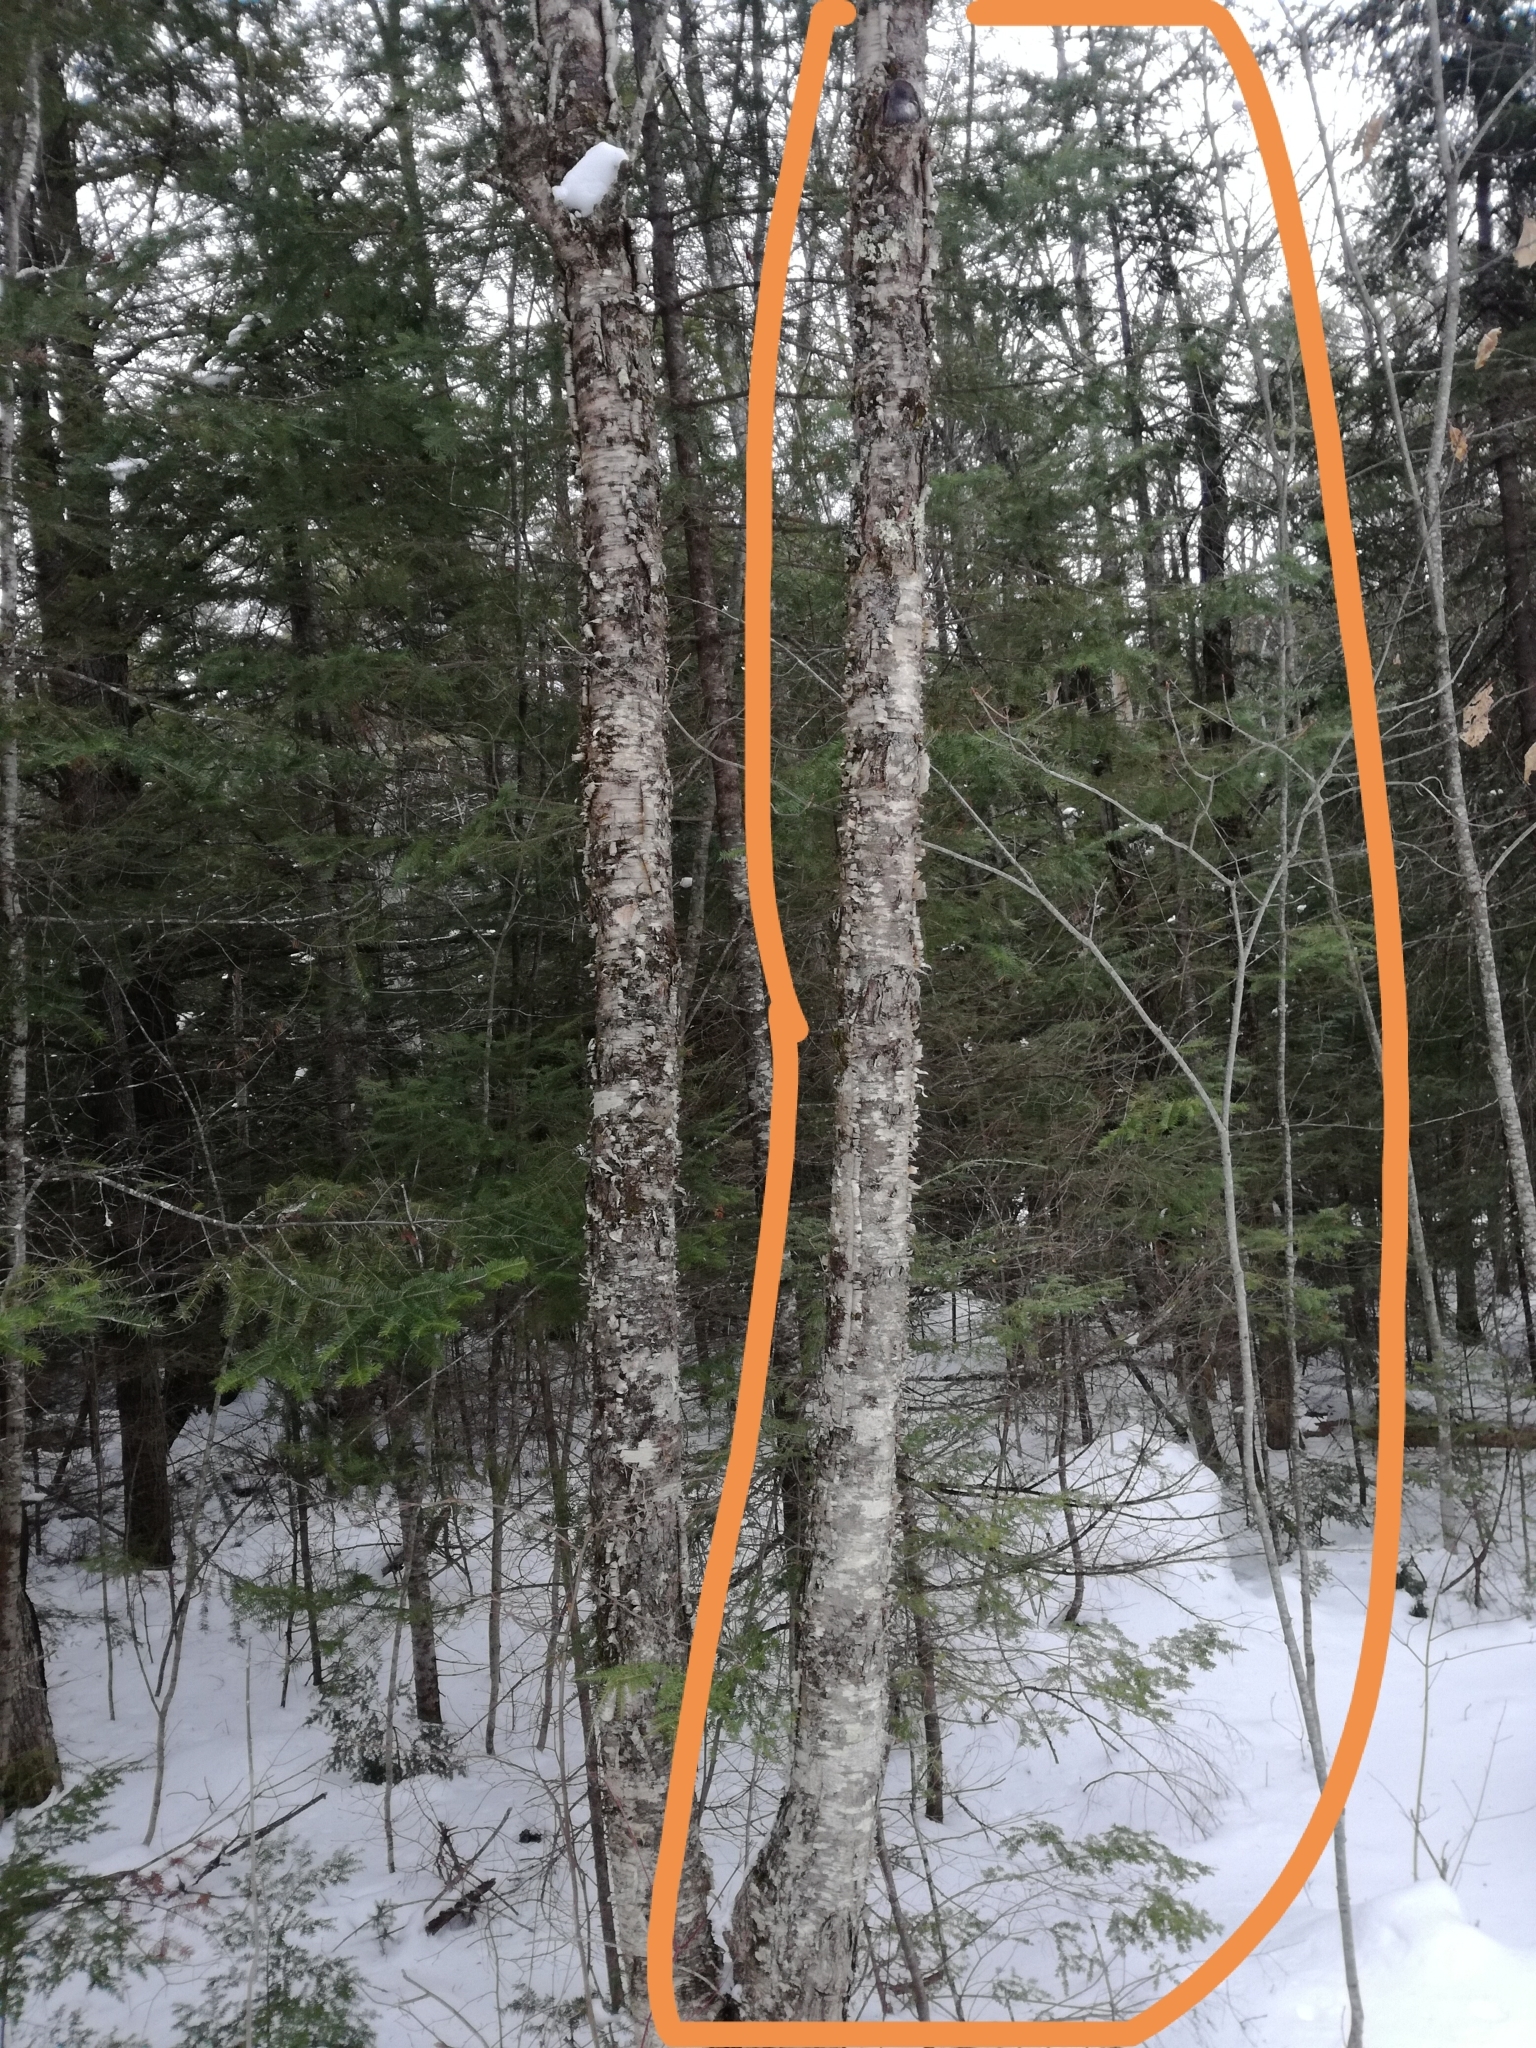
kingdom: Plantae
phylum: Tracheophyta
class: Magnoliopsida
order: Fagales
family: Betulaceae
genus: Betula
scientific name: Betula alleghaniensis
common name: Yellow birch
